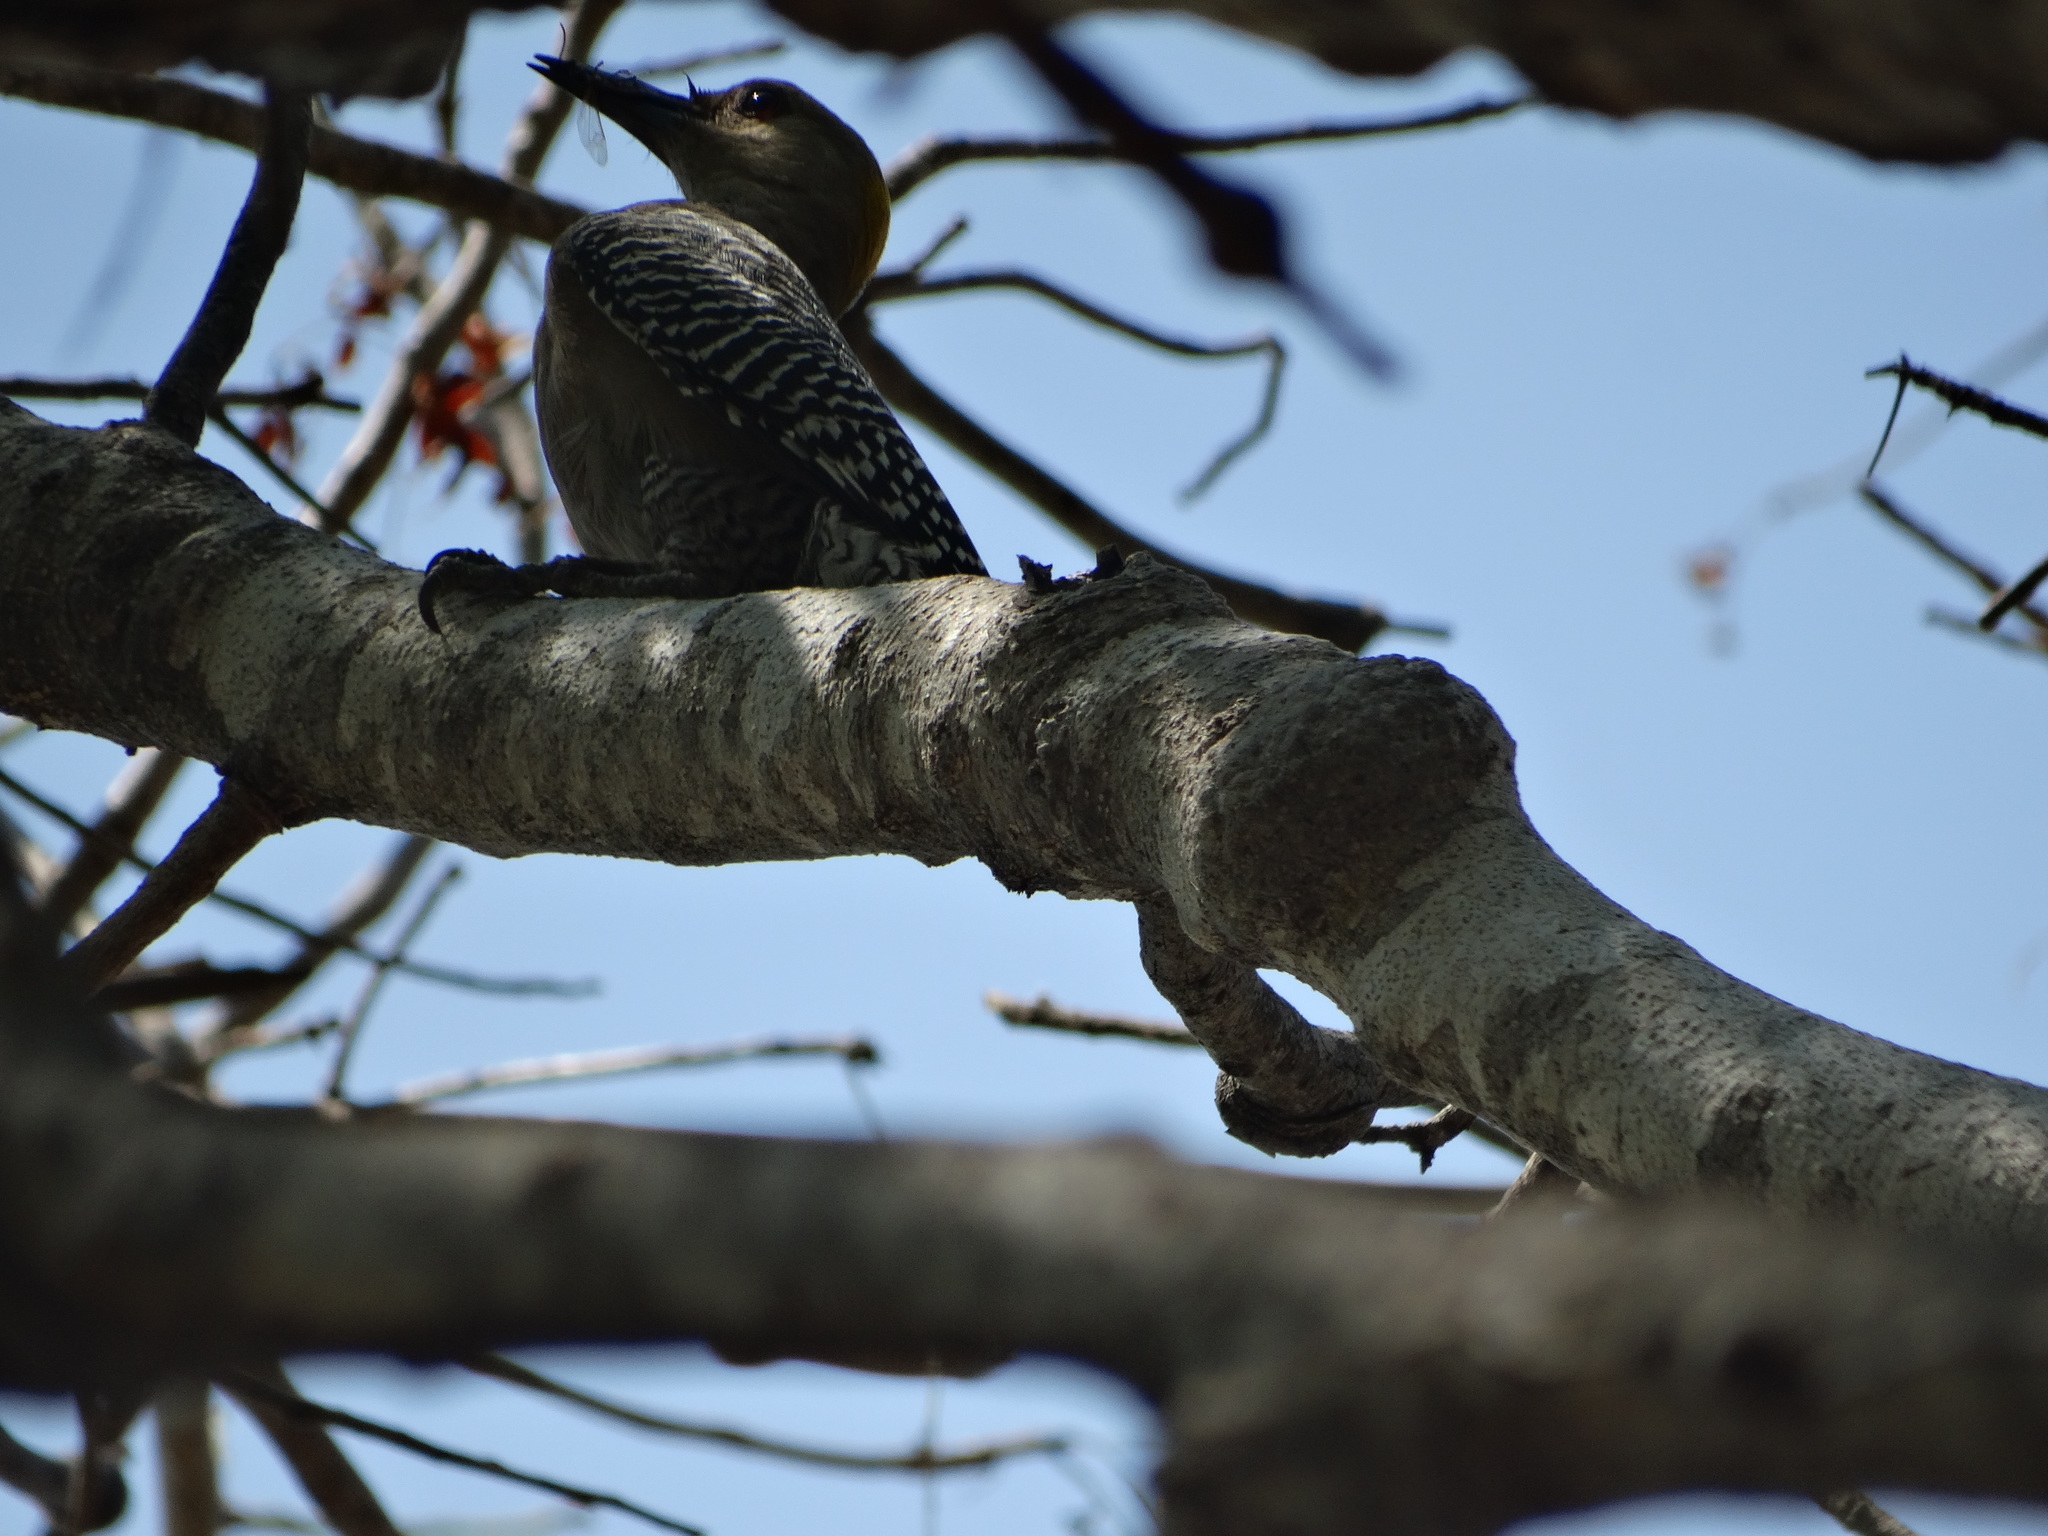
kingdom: Animalia
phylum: Chordata
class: Aves
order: Piciformes
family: Picidae
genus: Melanerpes
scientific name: Melanerpes aurifrons
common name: Golden-fronted woodpecker
